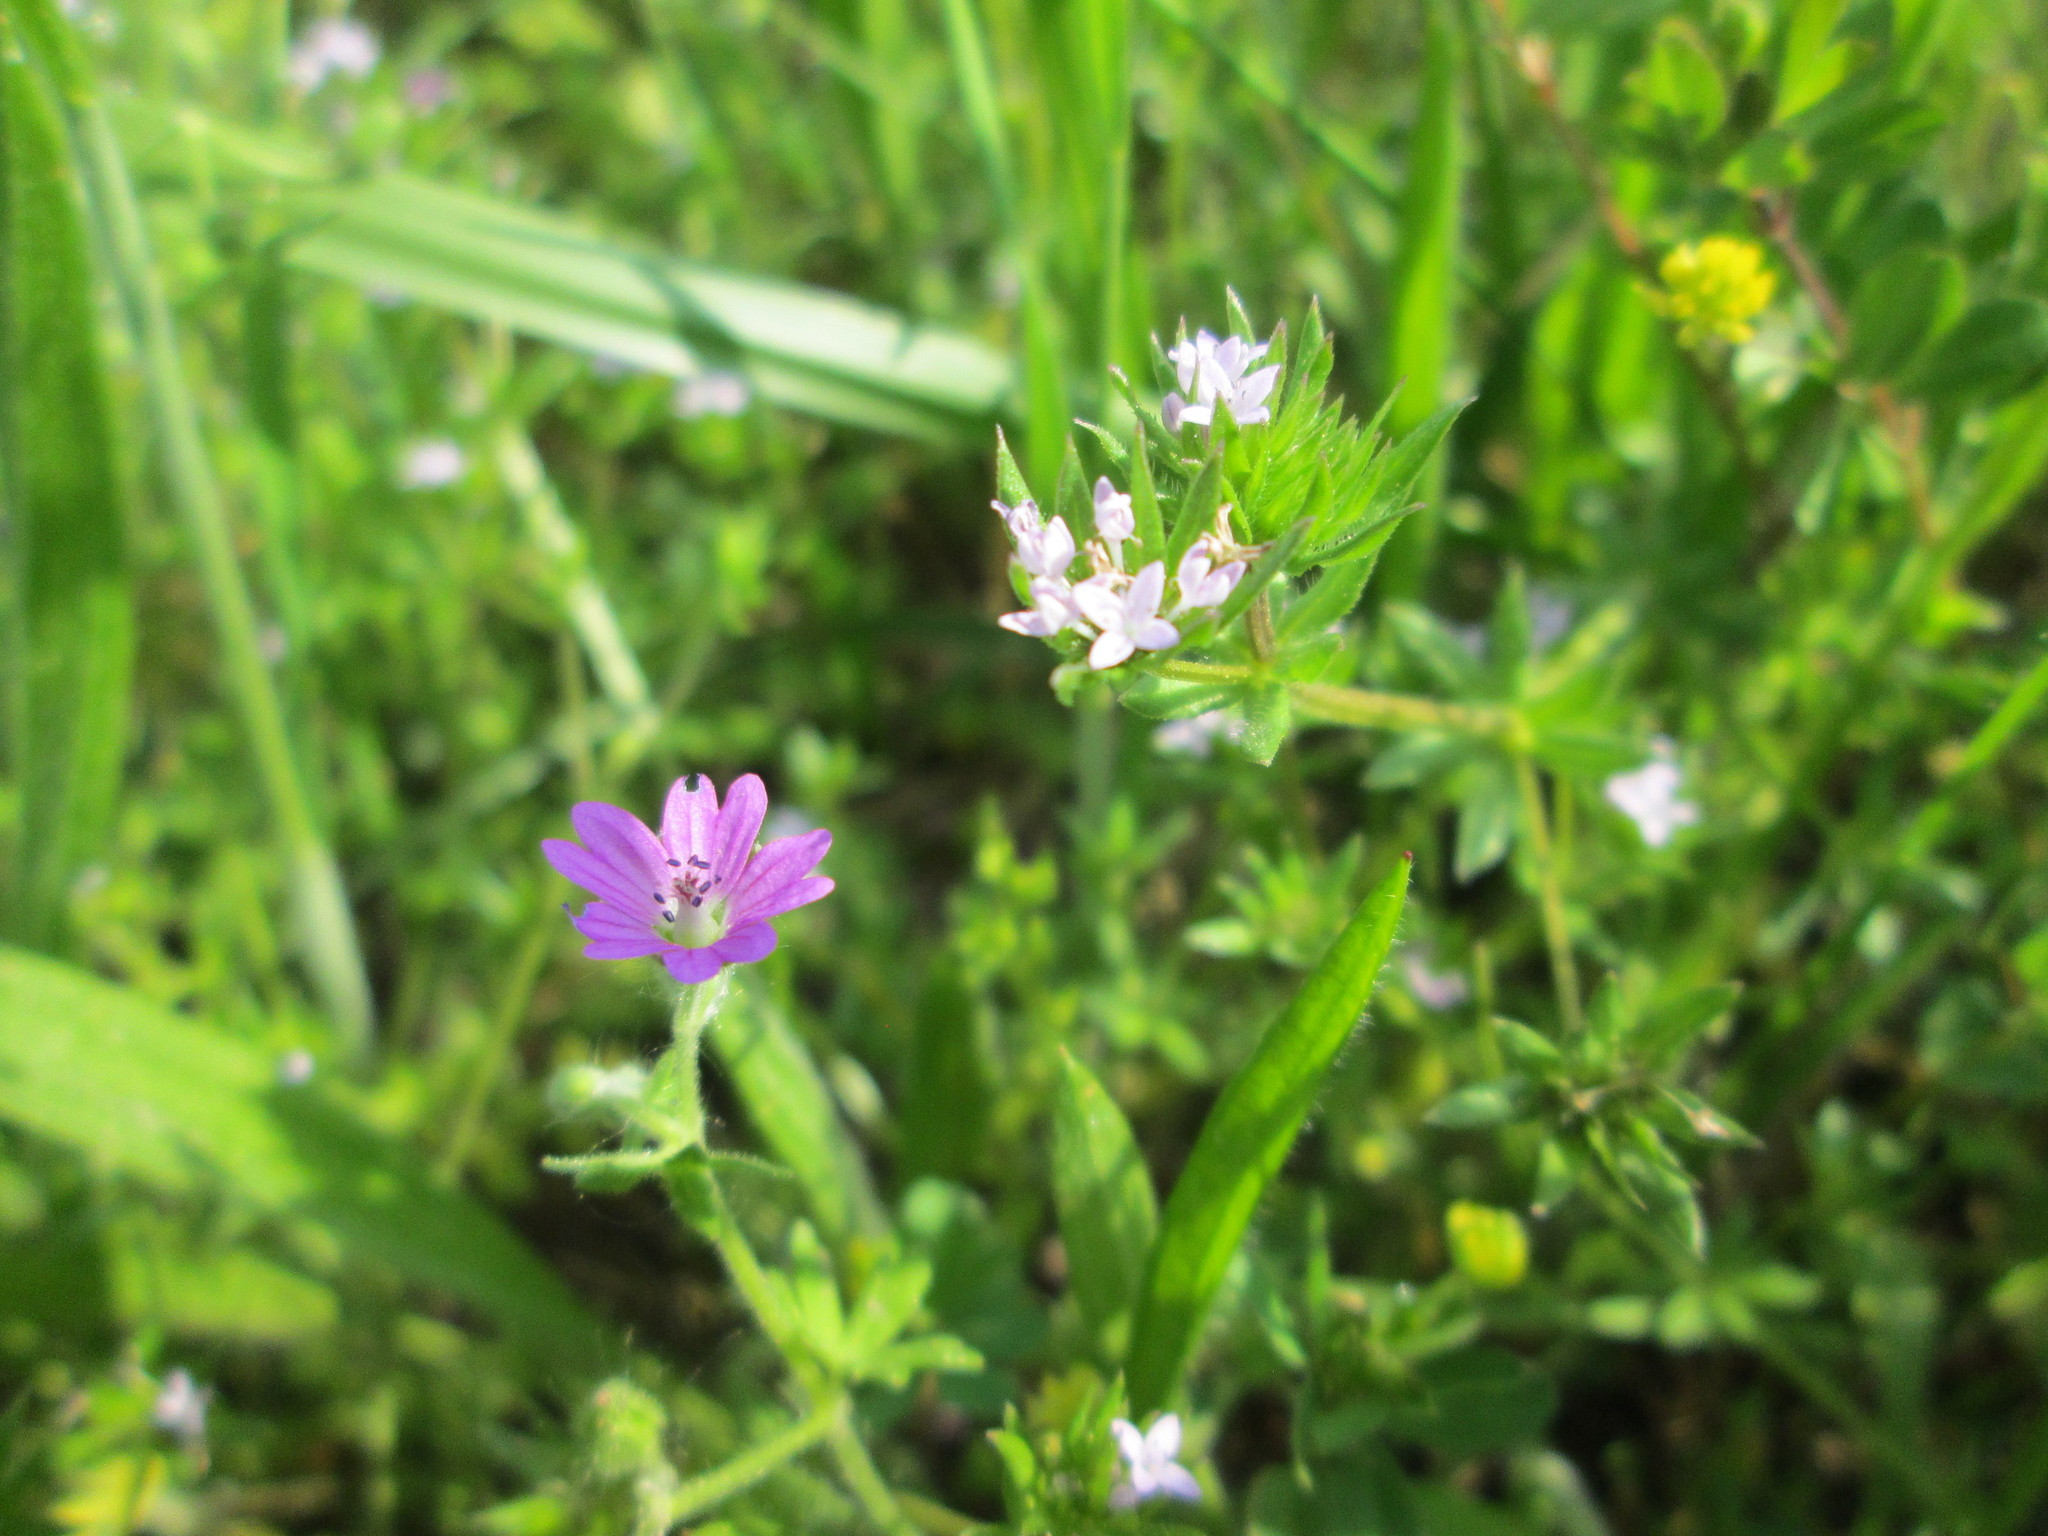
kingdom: Plantae
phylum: Tracheophyta
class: Magnoliopsida
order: Gentianales
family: Rubiaceae
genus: Sherardia
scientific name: Sherardia arvensis
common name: Field madder
